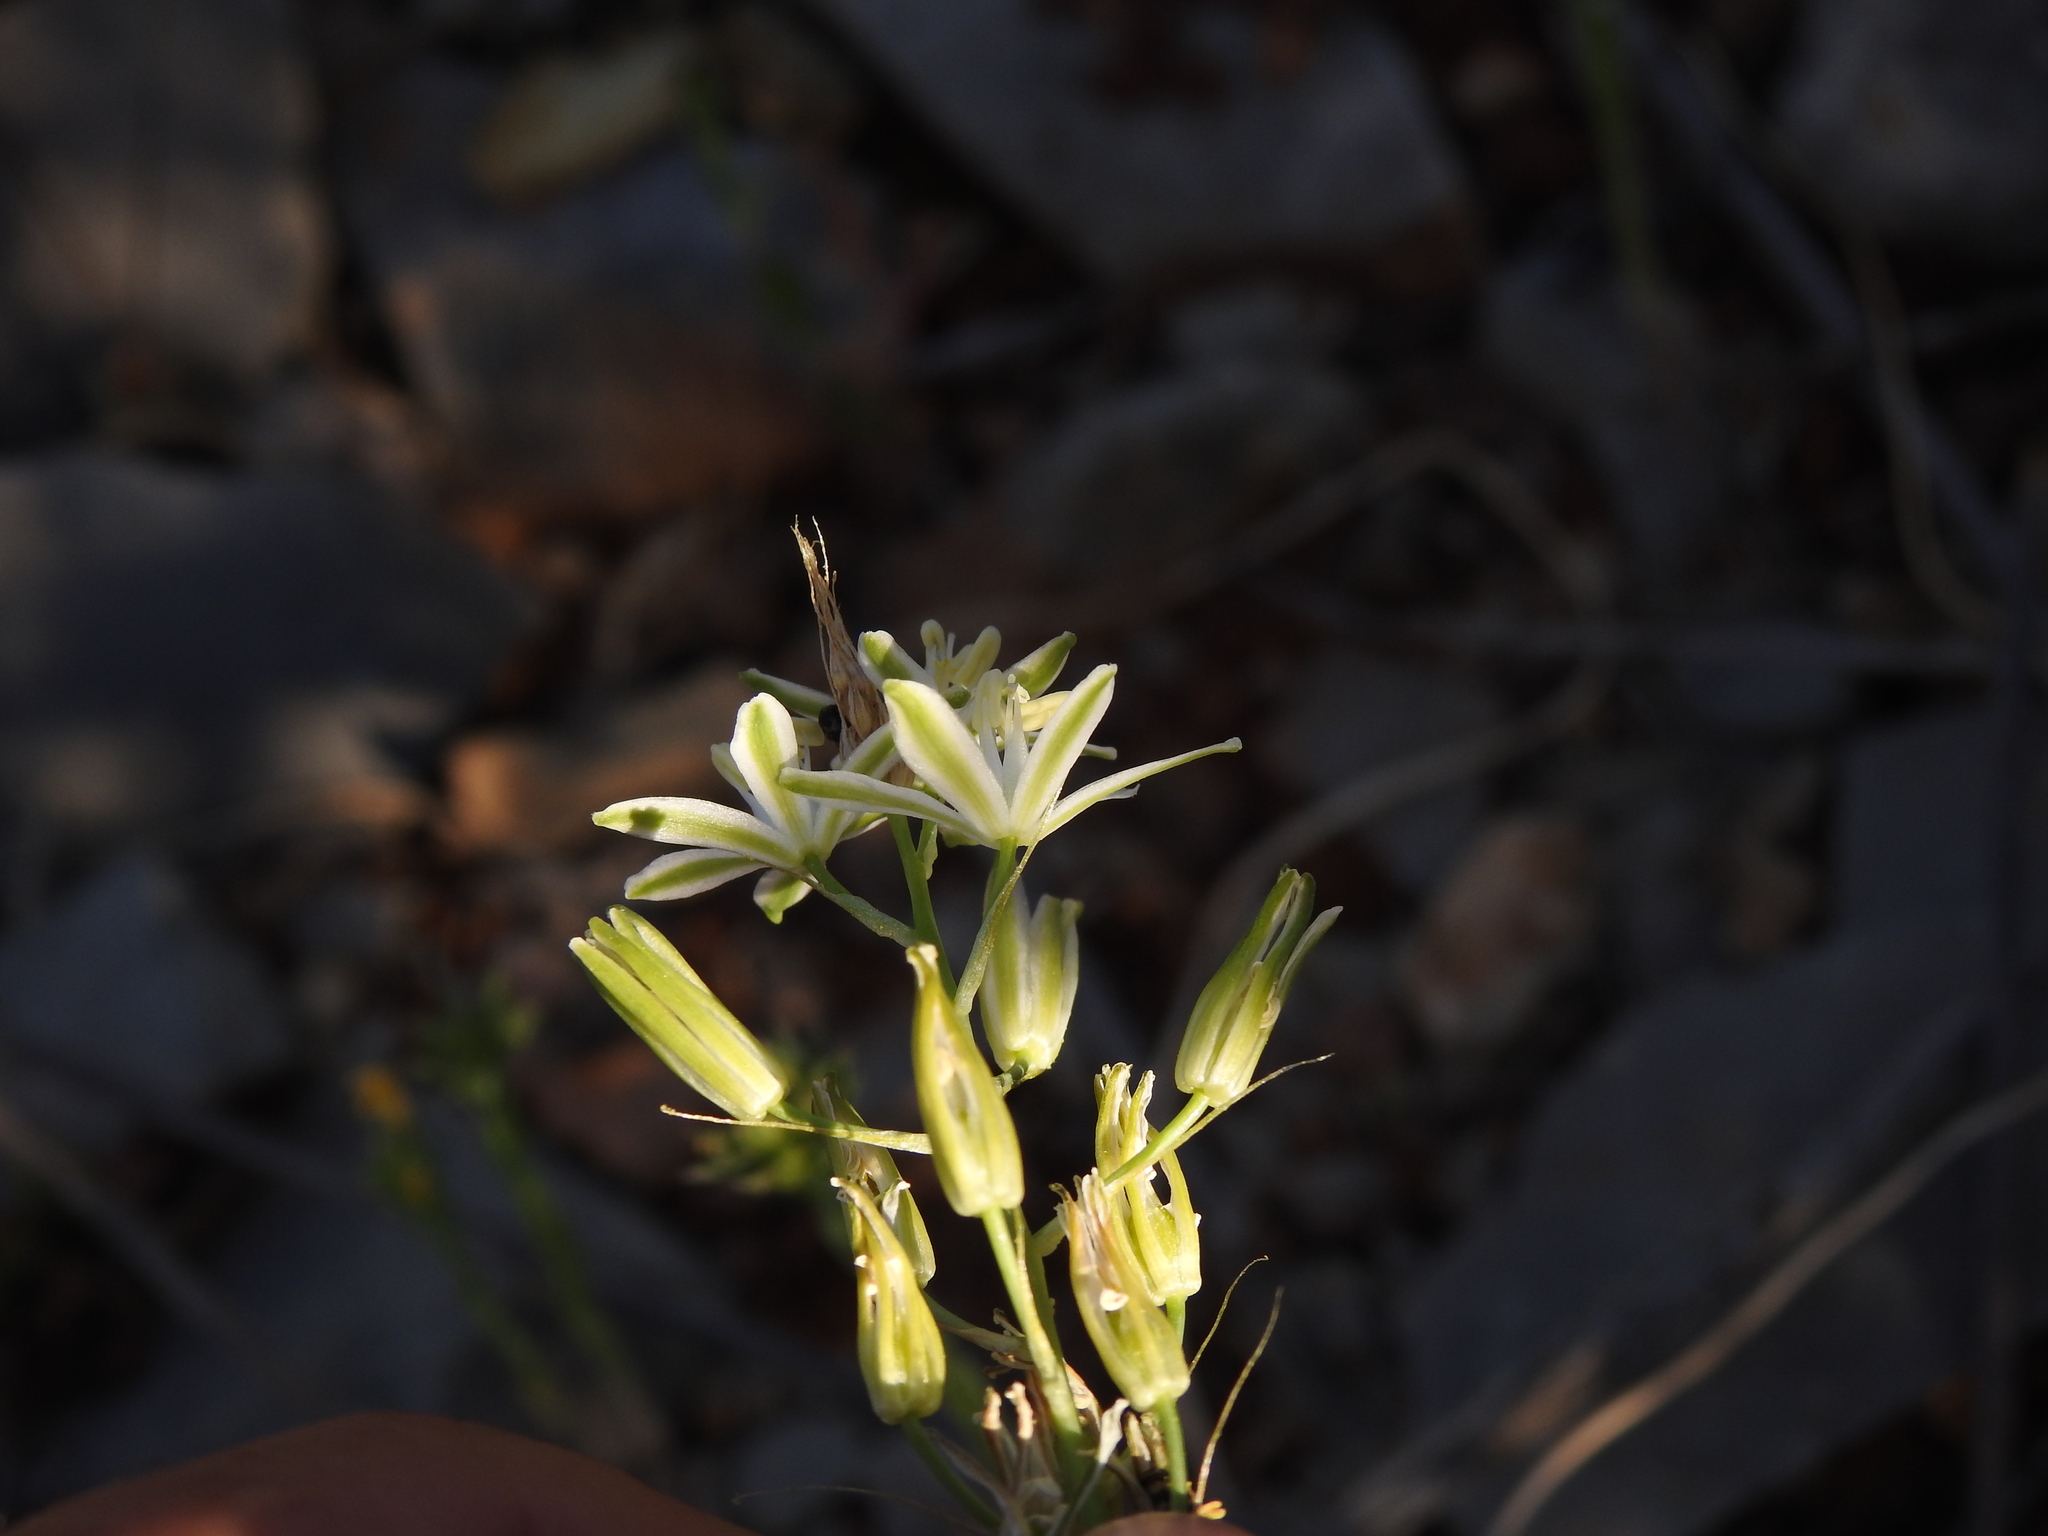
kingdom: Plantae
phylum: Tracheophyta
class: Liliopsida
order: Asparagales
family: Asparagaceae
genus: Ornithogalum
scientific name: Ornithogalum narbonense
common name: Bath-asparagus
